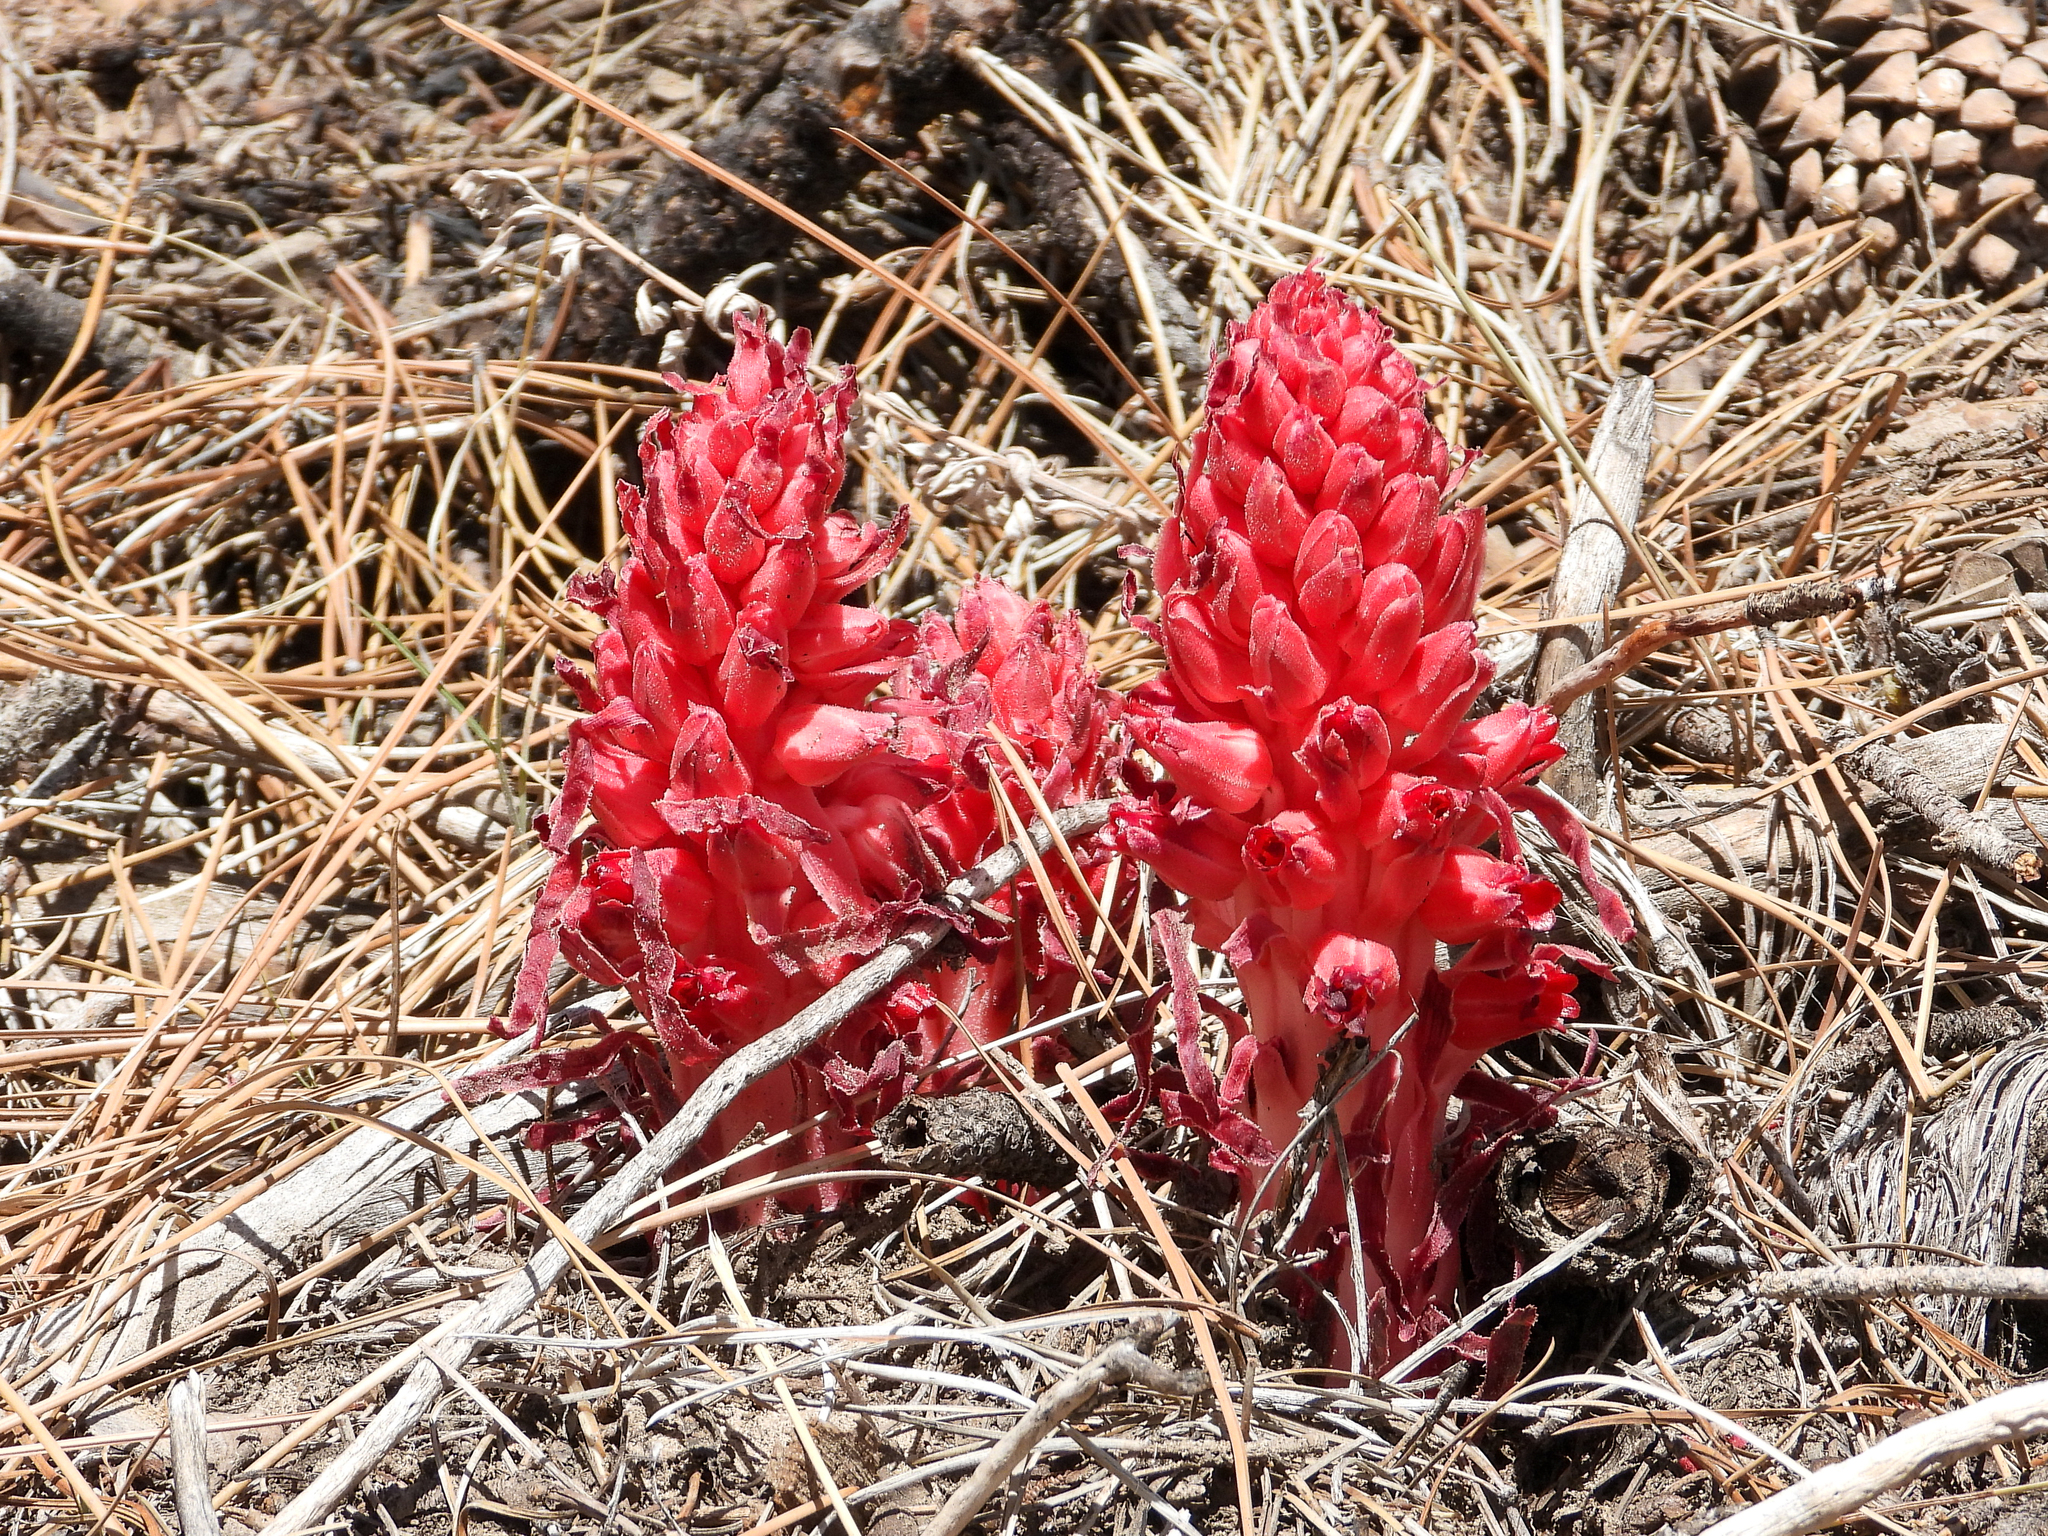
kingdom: Plantae
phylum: Tracheophyta
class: Magnoliopsida
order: Ericales
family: Ericaceae
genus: Sarcodes
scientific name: Sarcodes sanguinea
